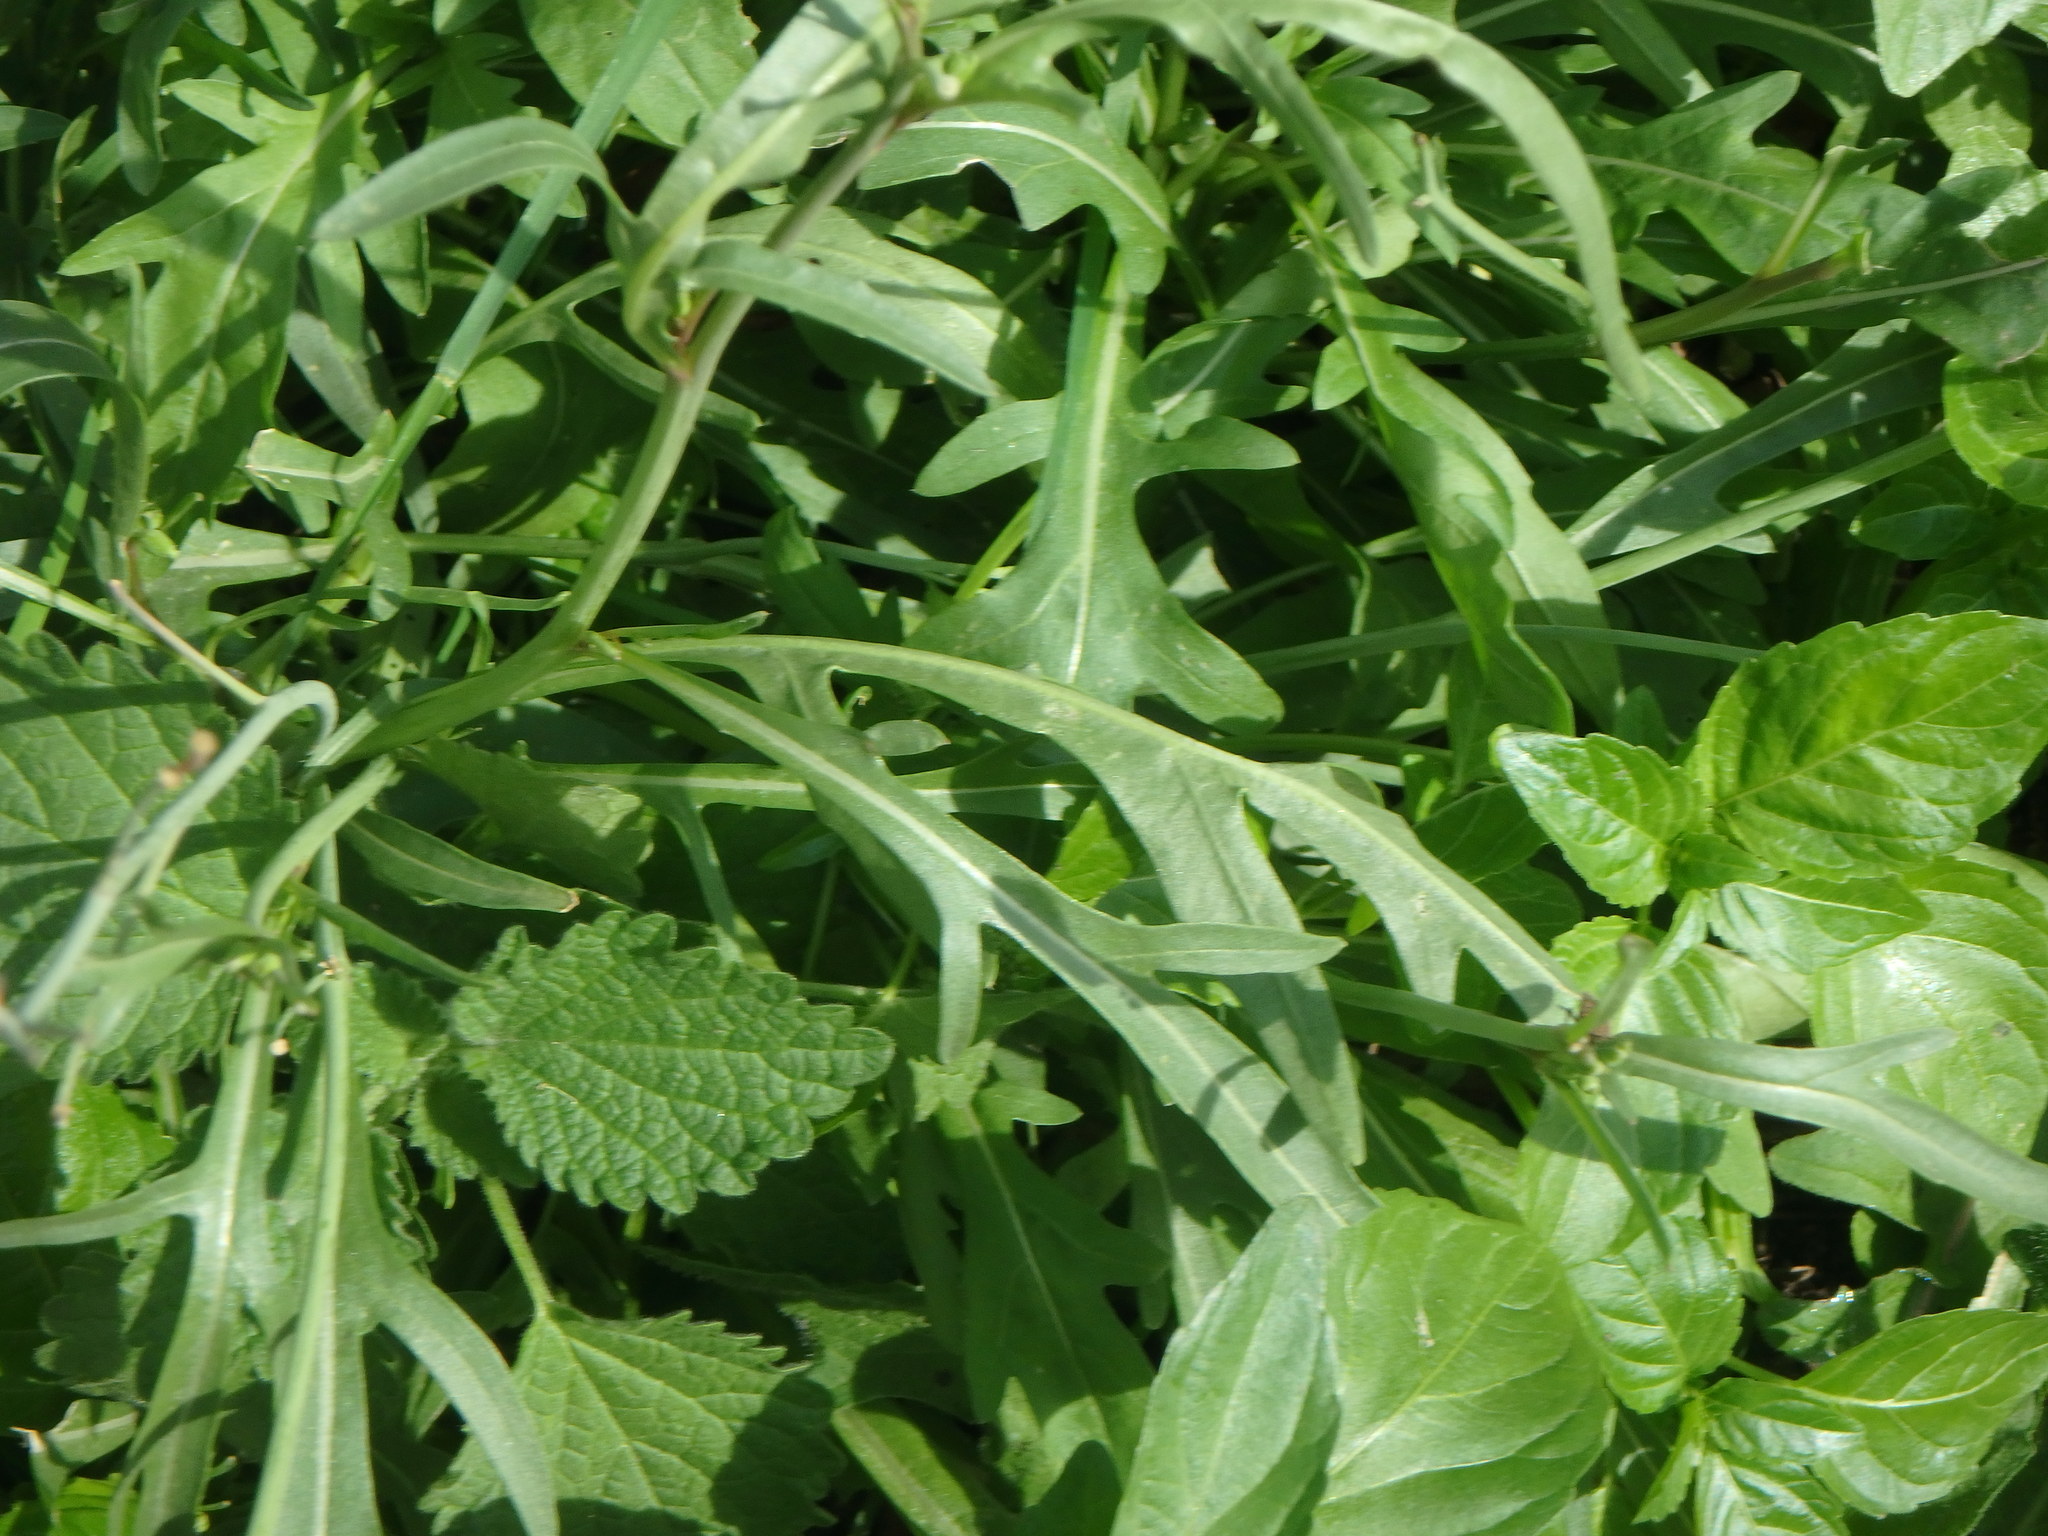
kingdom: Plantae
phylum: Tracheophyta
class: Magnoliopsida
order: Brassicales
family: Brassicaceae
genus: Diplotaxis
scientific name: Diplotaxis tenuifolia
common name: Perennial wall-rocket
